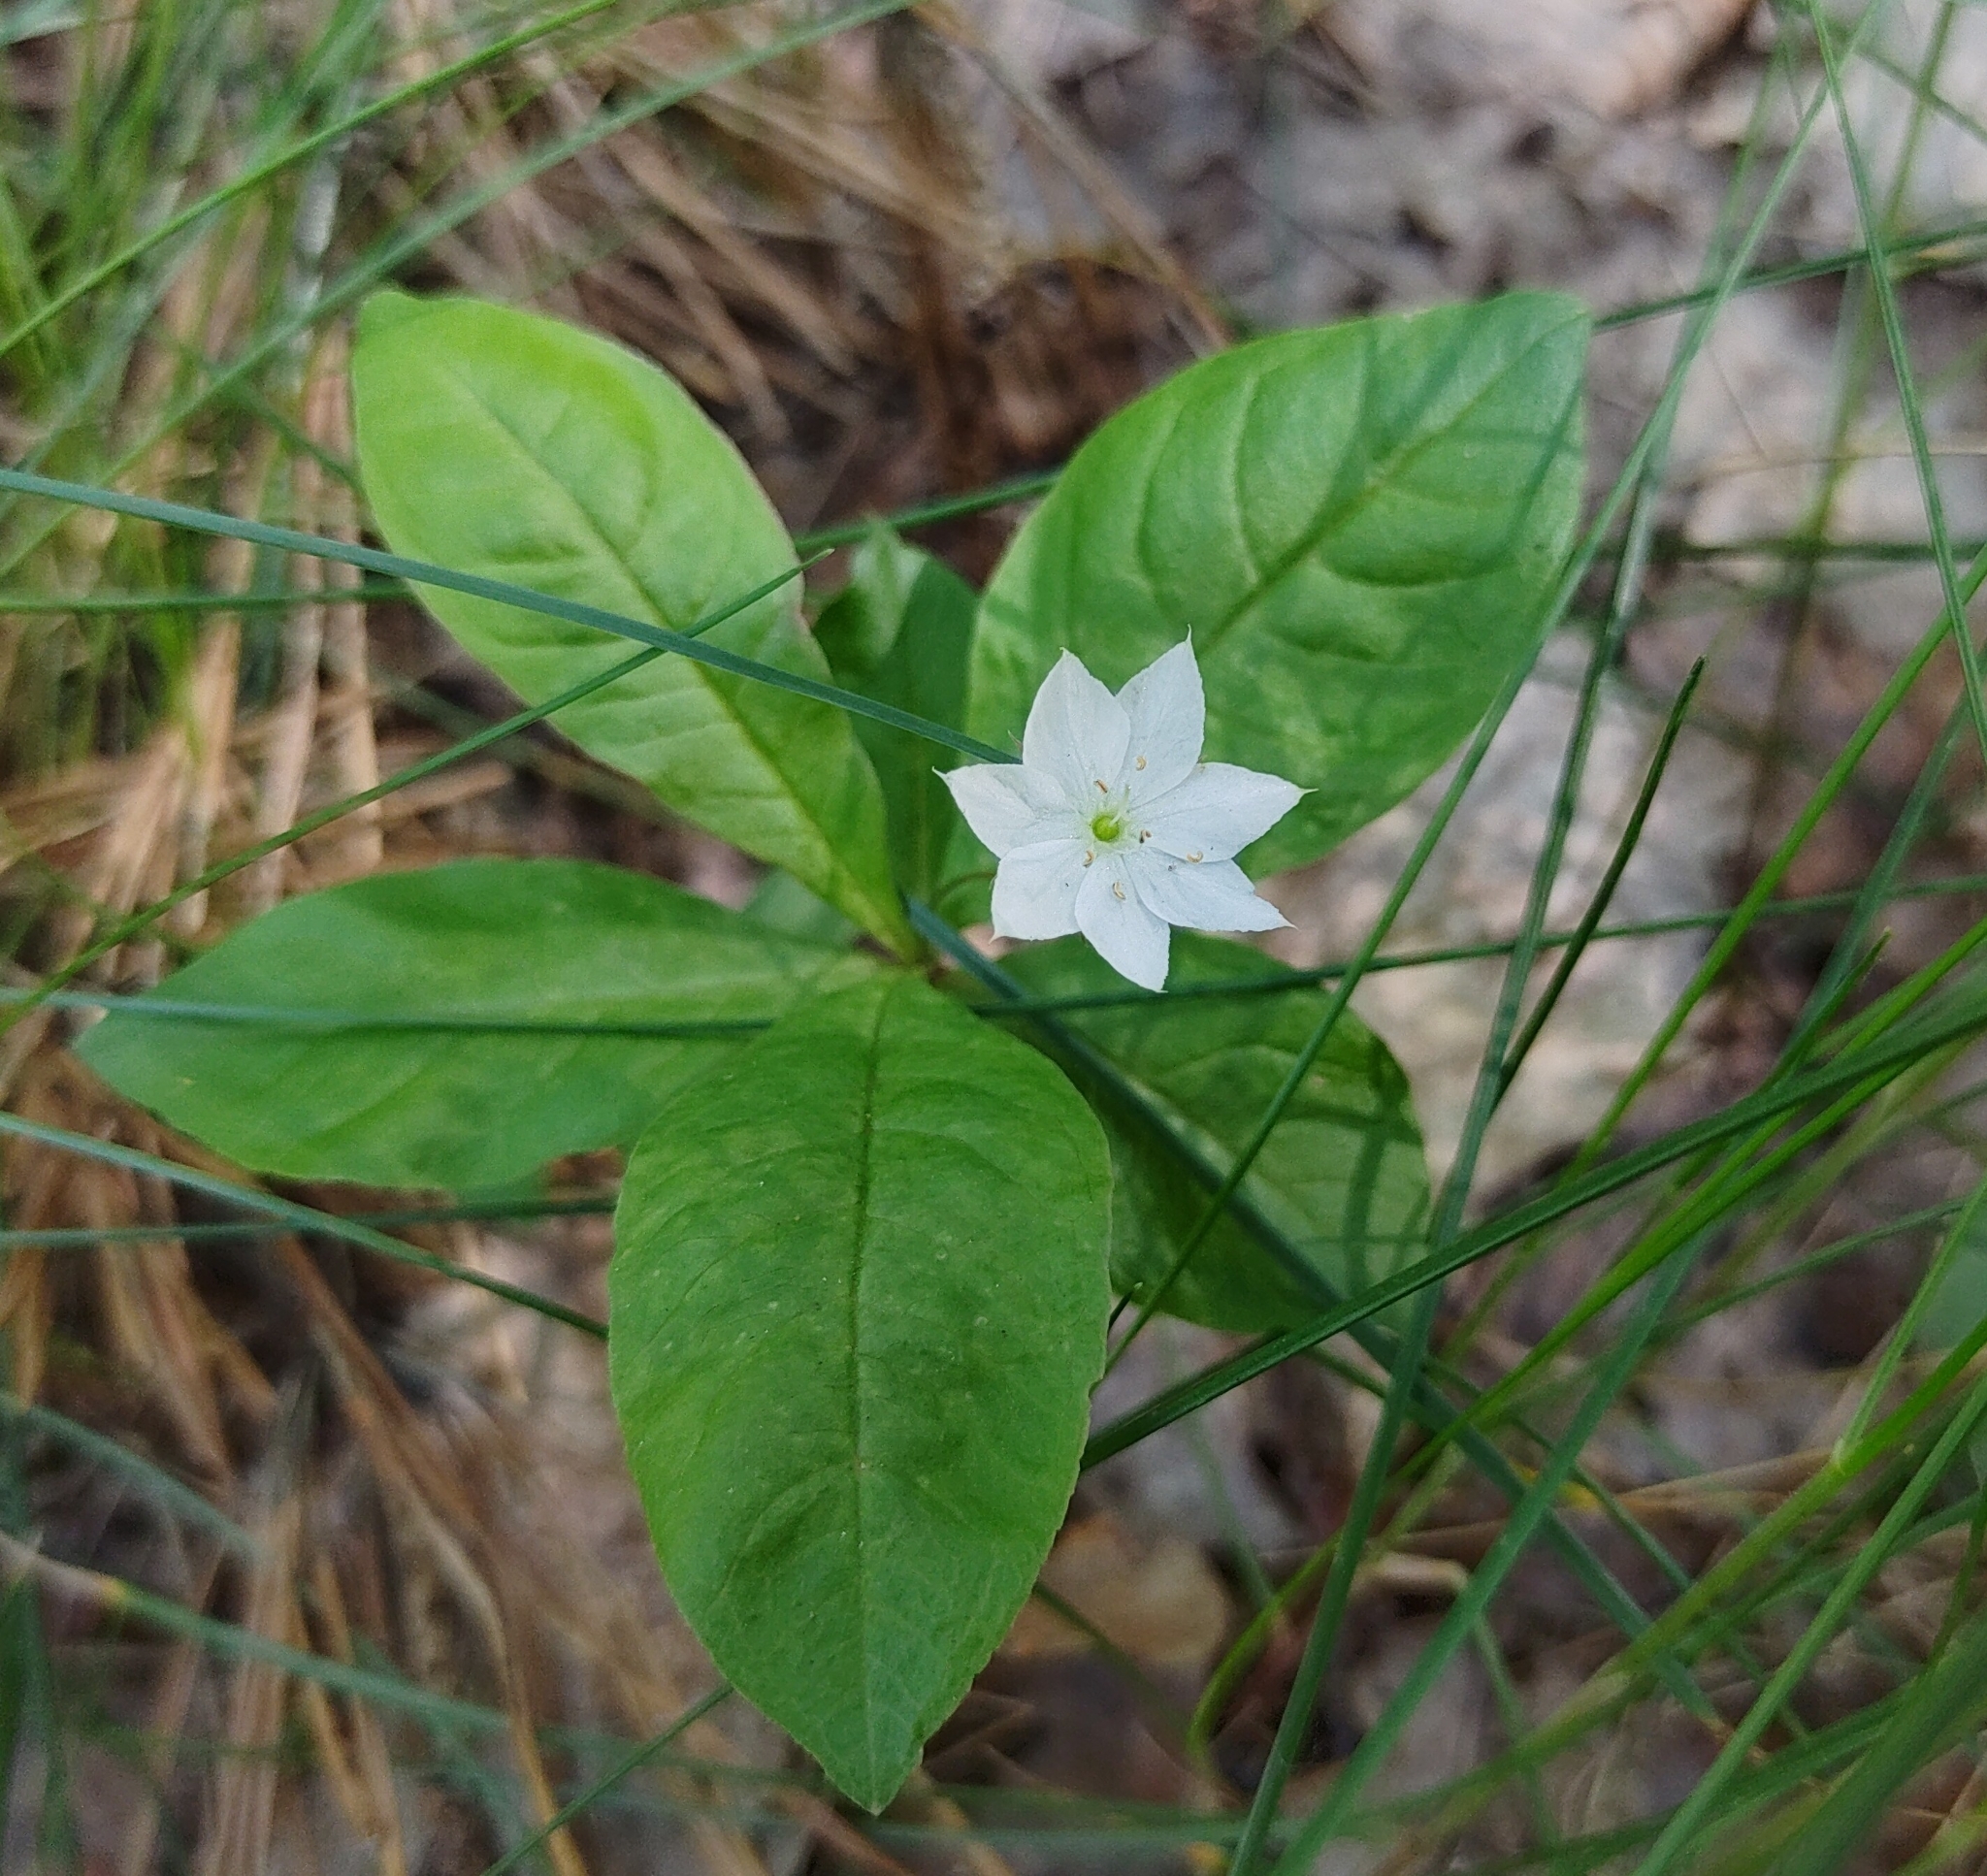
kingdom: Plantae
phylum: Tracheophyta
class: Magnoliopsida
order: Ericales
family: Primulaceae
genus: Lysimachia
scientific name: Lysimachia europaea
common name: Arctic starflower
